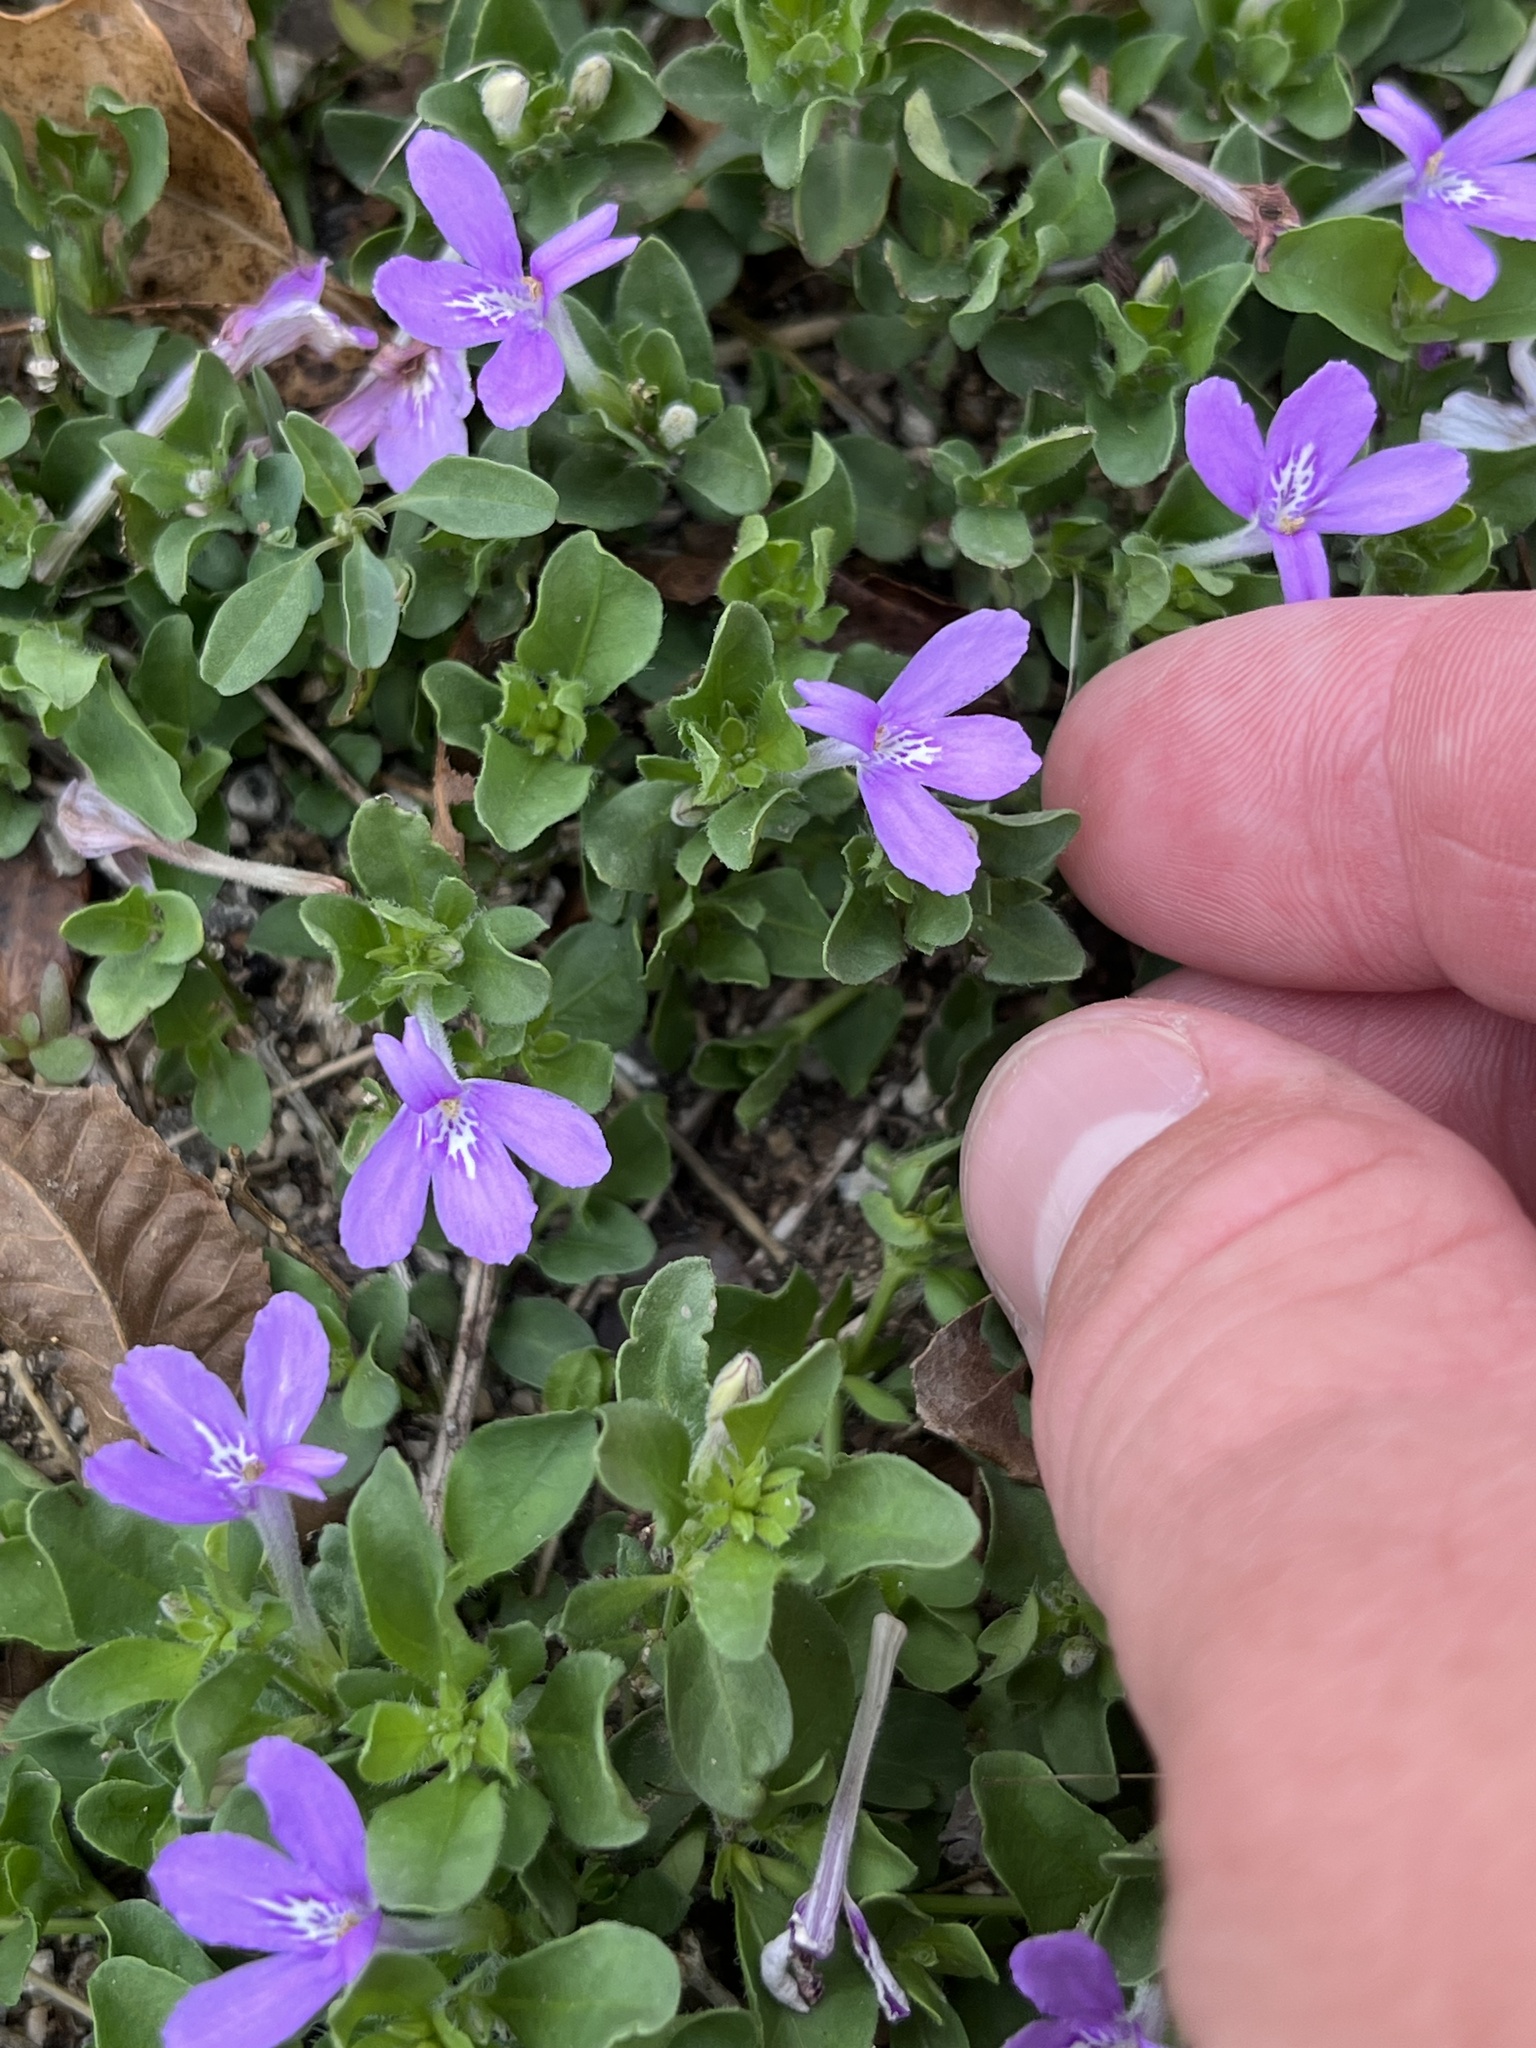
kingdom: Plantae
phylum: Tracheophyta
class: Magnoliopsida
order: Lamiales
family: Acanthaceae
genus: Justicia
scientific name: Justicia pilosella
